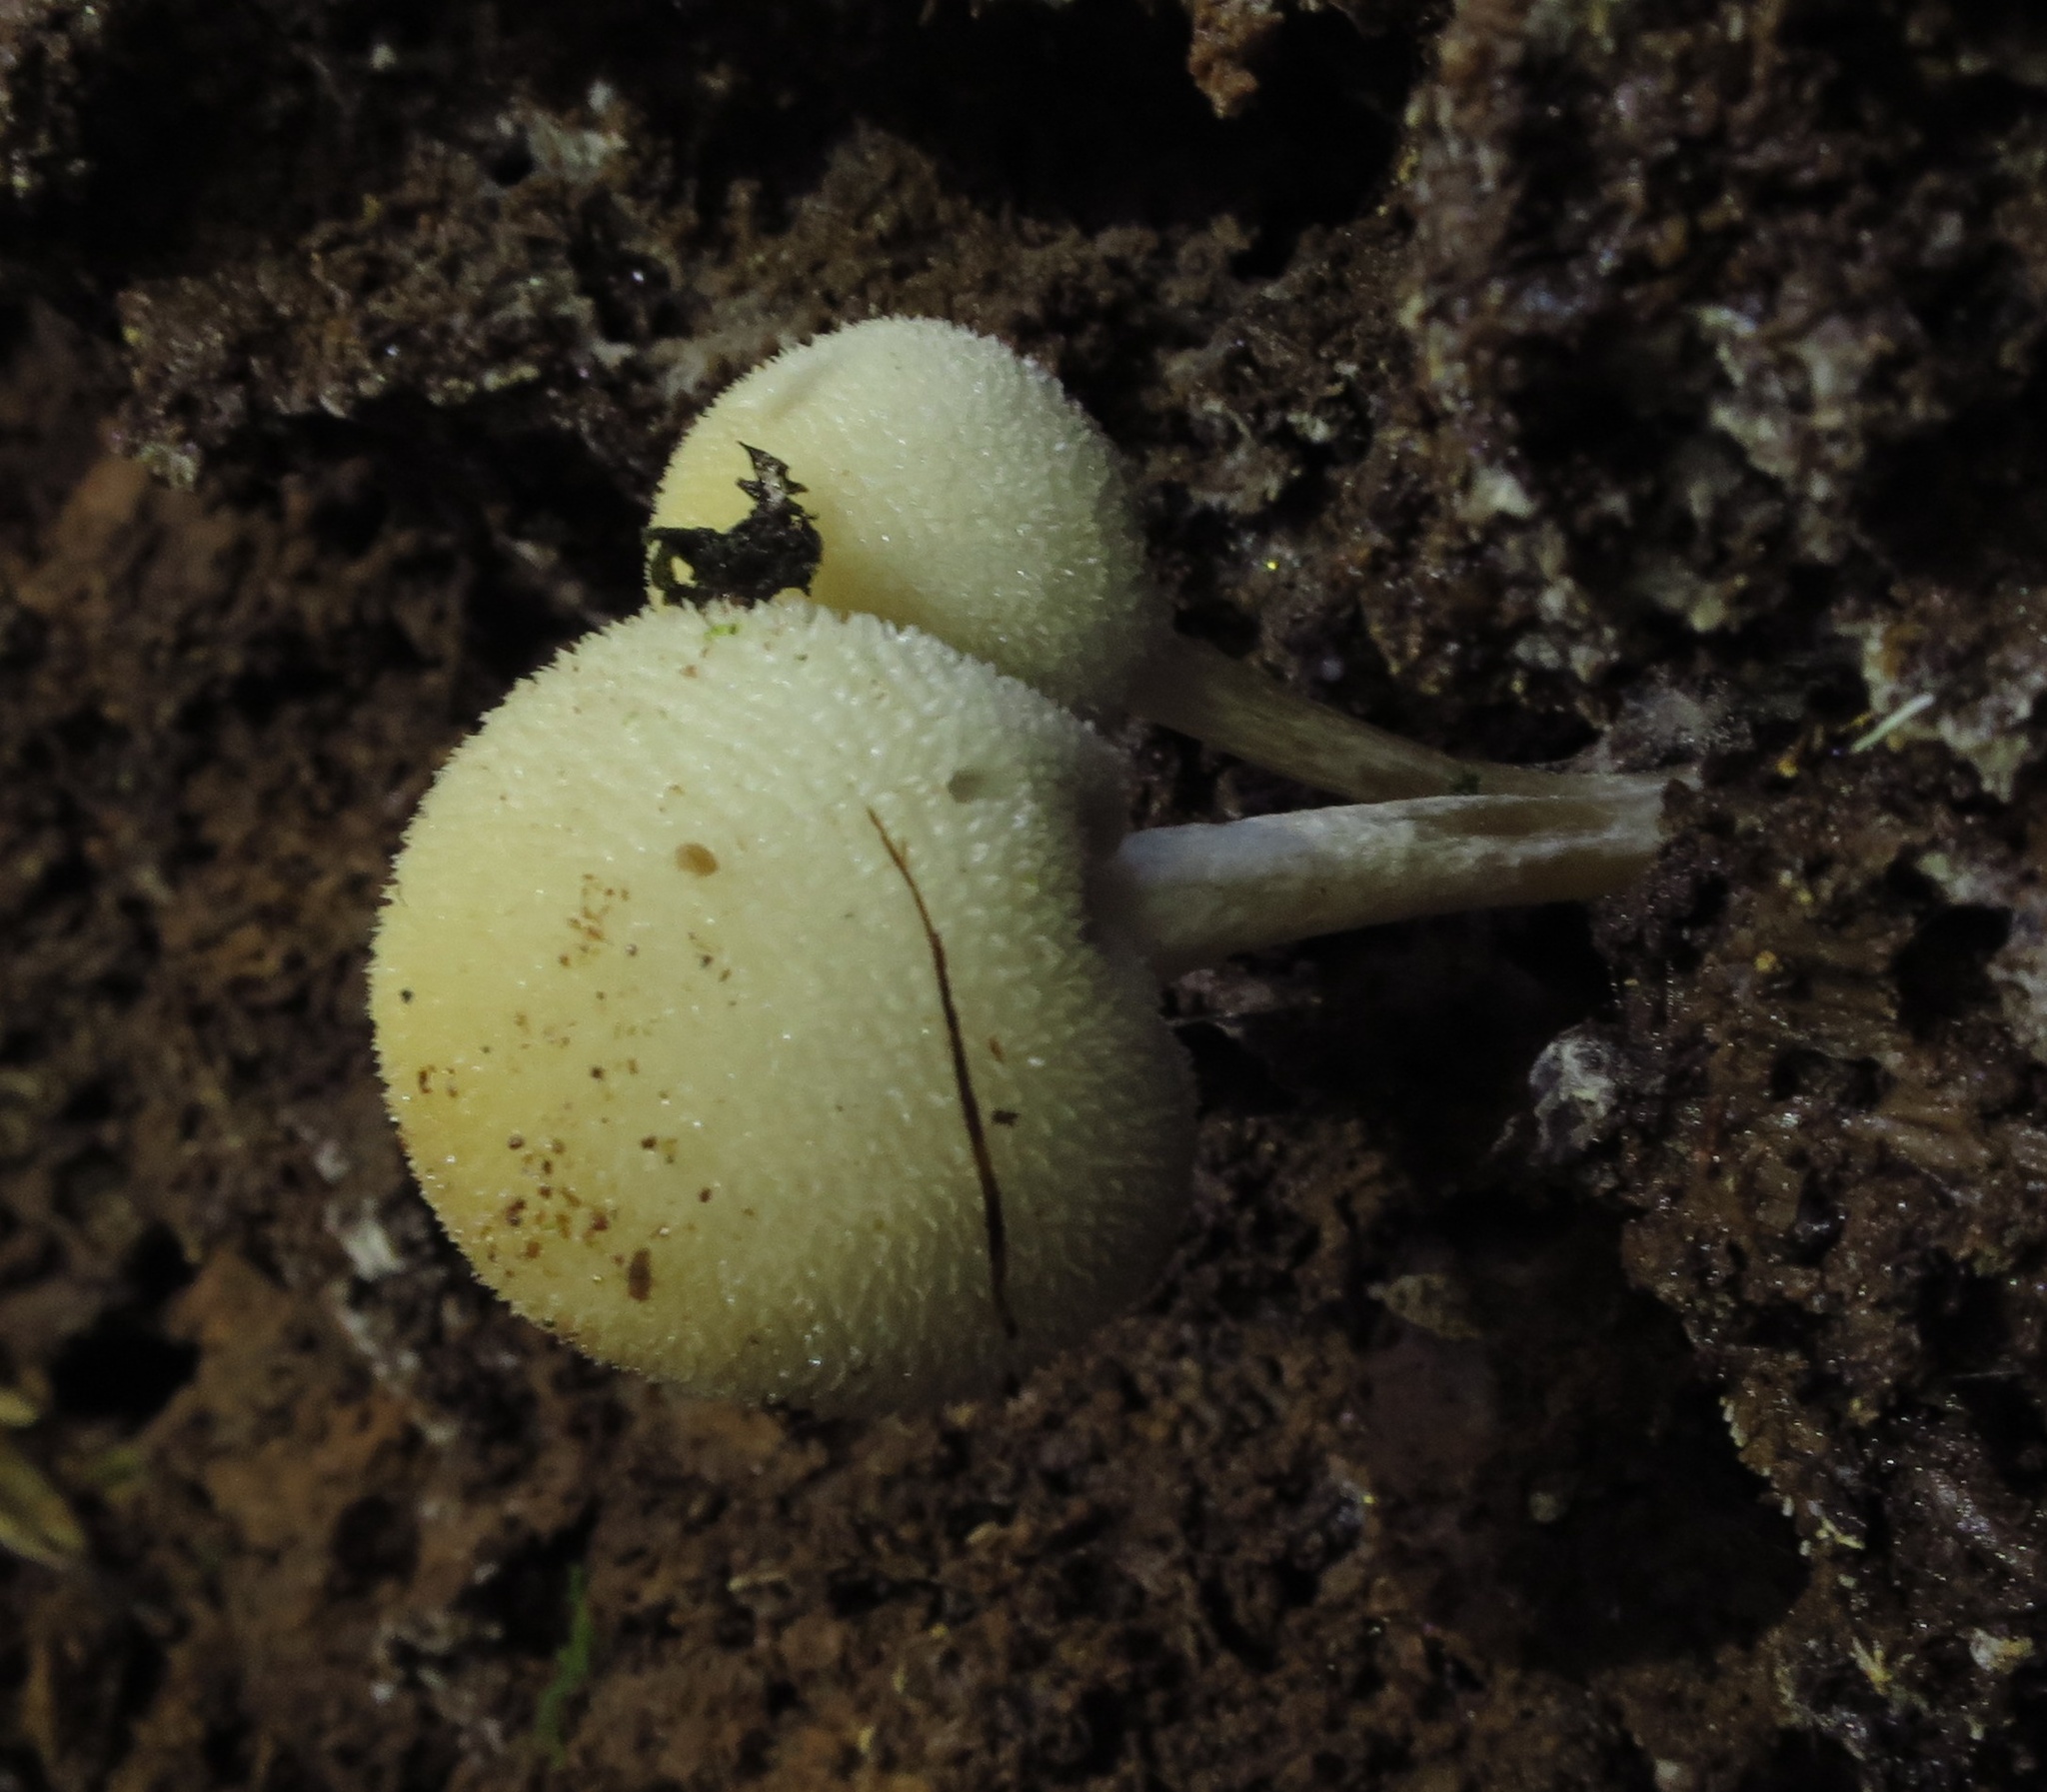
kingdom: Fungi
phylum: Basidiomycota
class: Agaricomycetes
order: Agaricales
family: Bolbitiaceae
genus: Tympanella
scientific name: Tympanella galanthina
